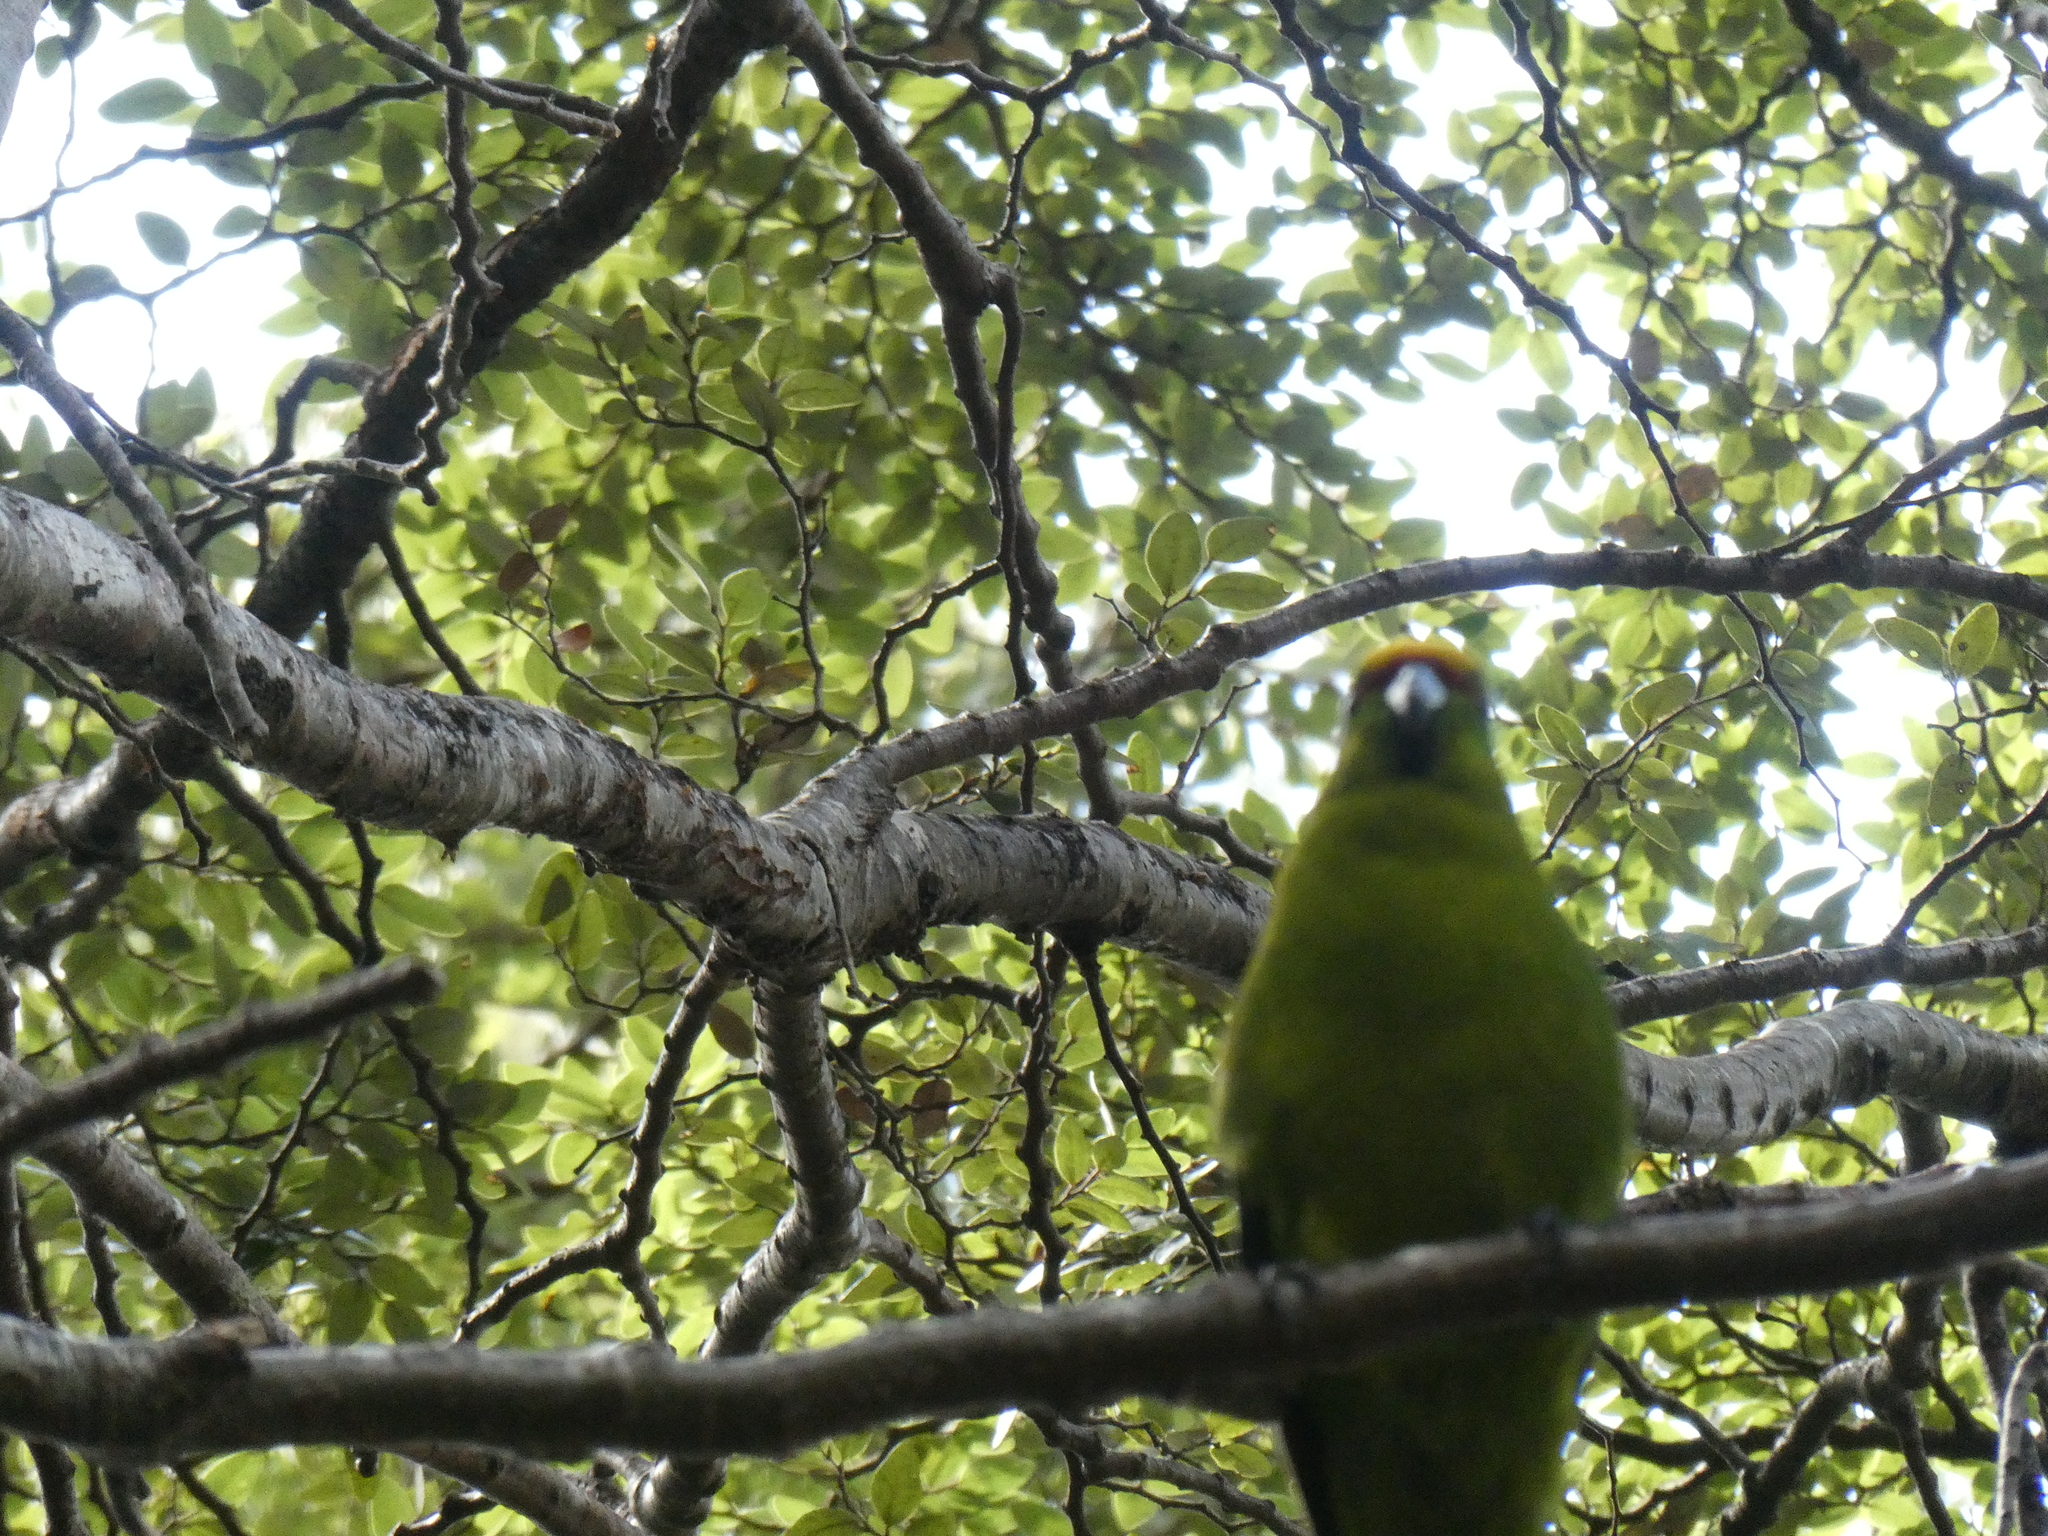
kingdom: Animalia
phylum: Chordata
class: Aves
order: Psittaciformes
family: Psittacidae
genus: Cyanoramphus
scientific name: Cyanoramphus auriceps
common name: Yellow-crowned parakeet
